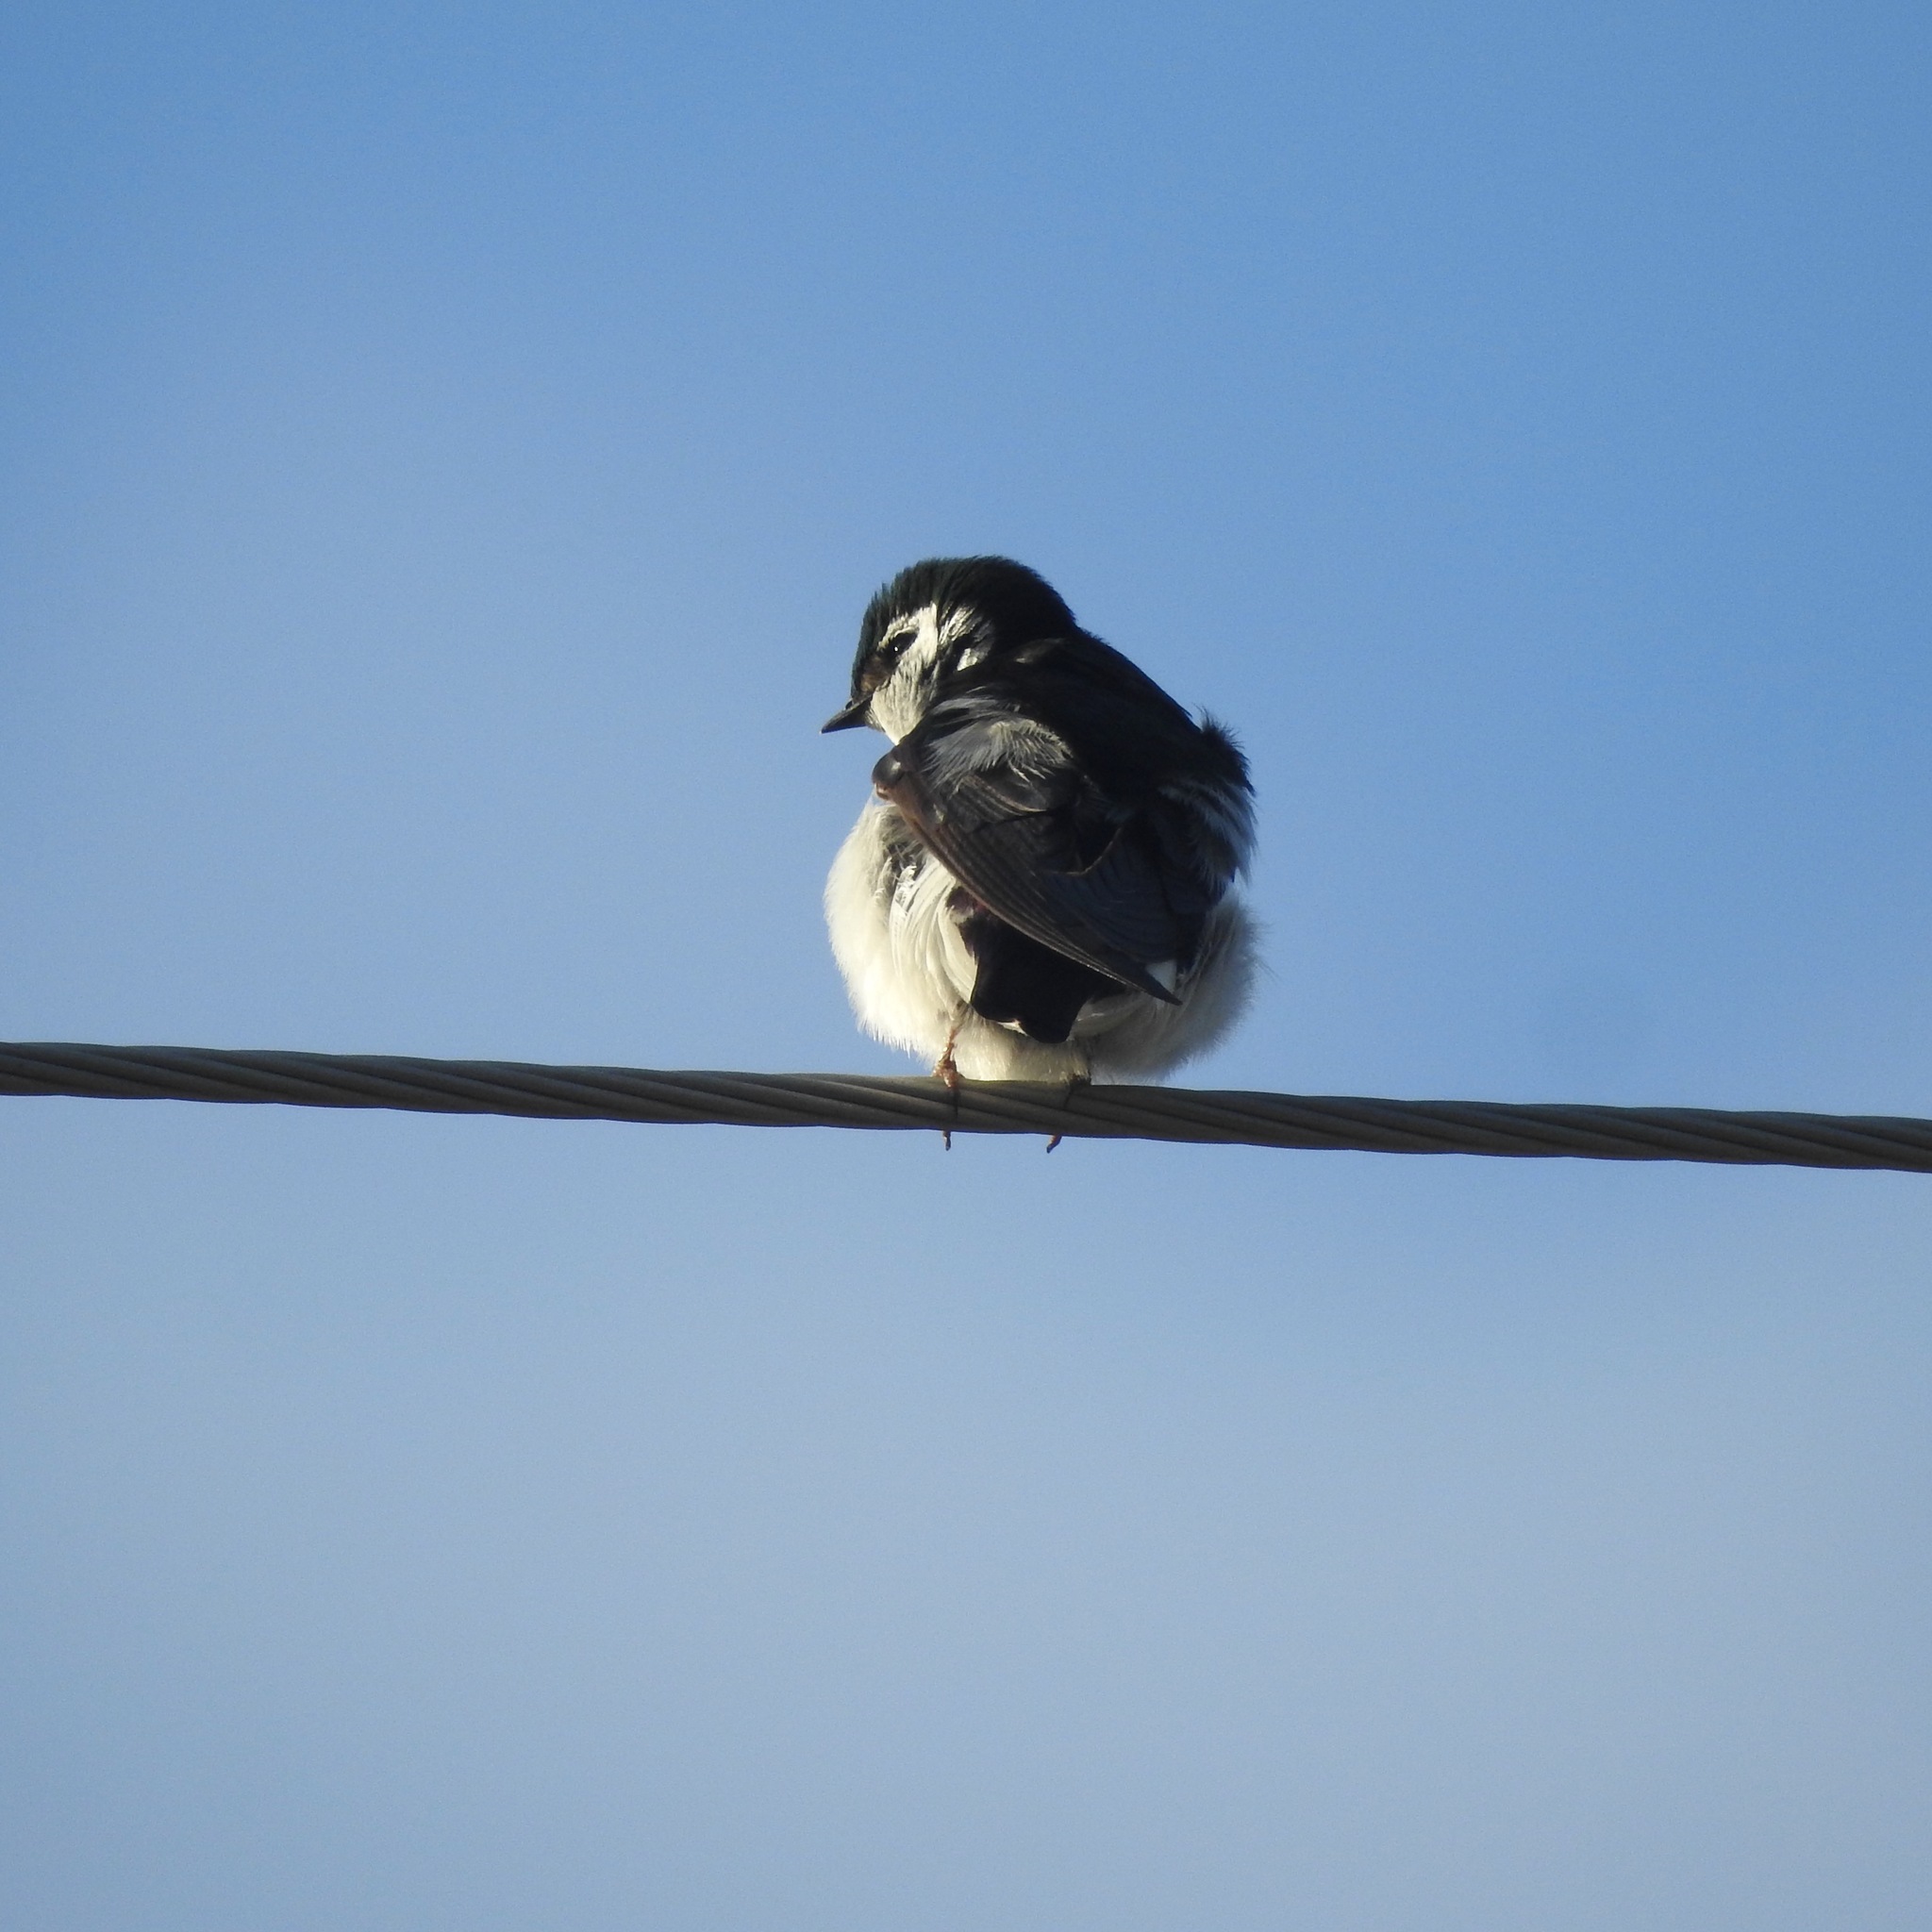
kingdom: Animalia
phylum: Chordata
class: Aves
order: Passeriformes
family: Hirundinidae
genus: Tachycineta
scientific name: Tachycineta thalassina
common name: Violet-green swallow
